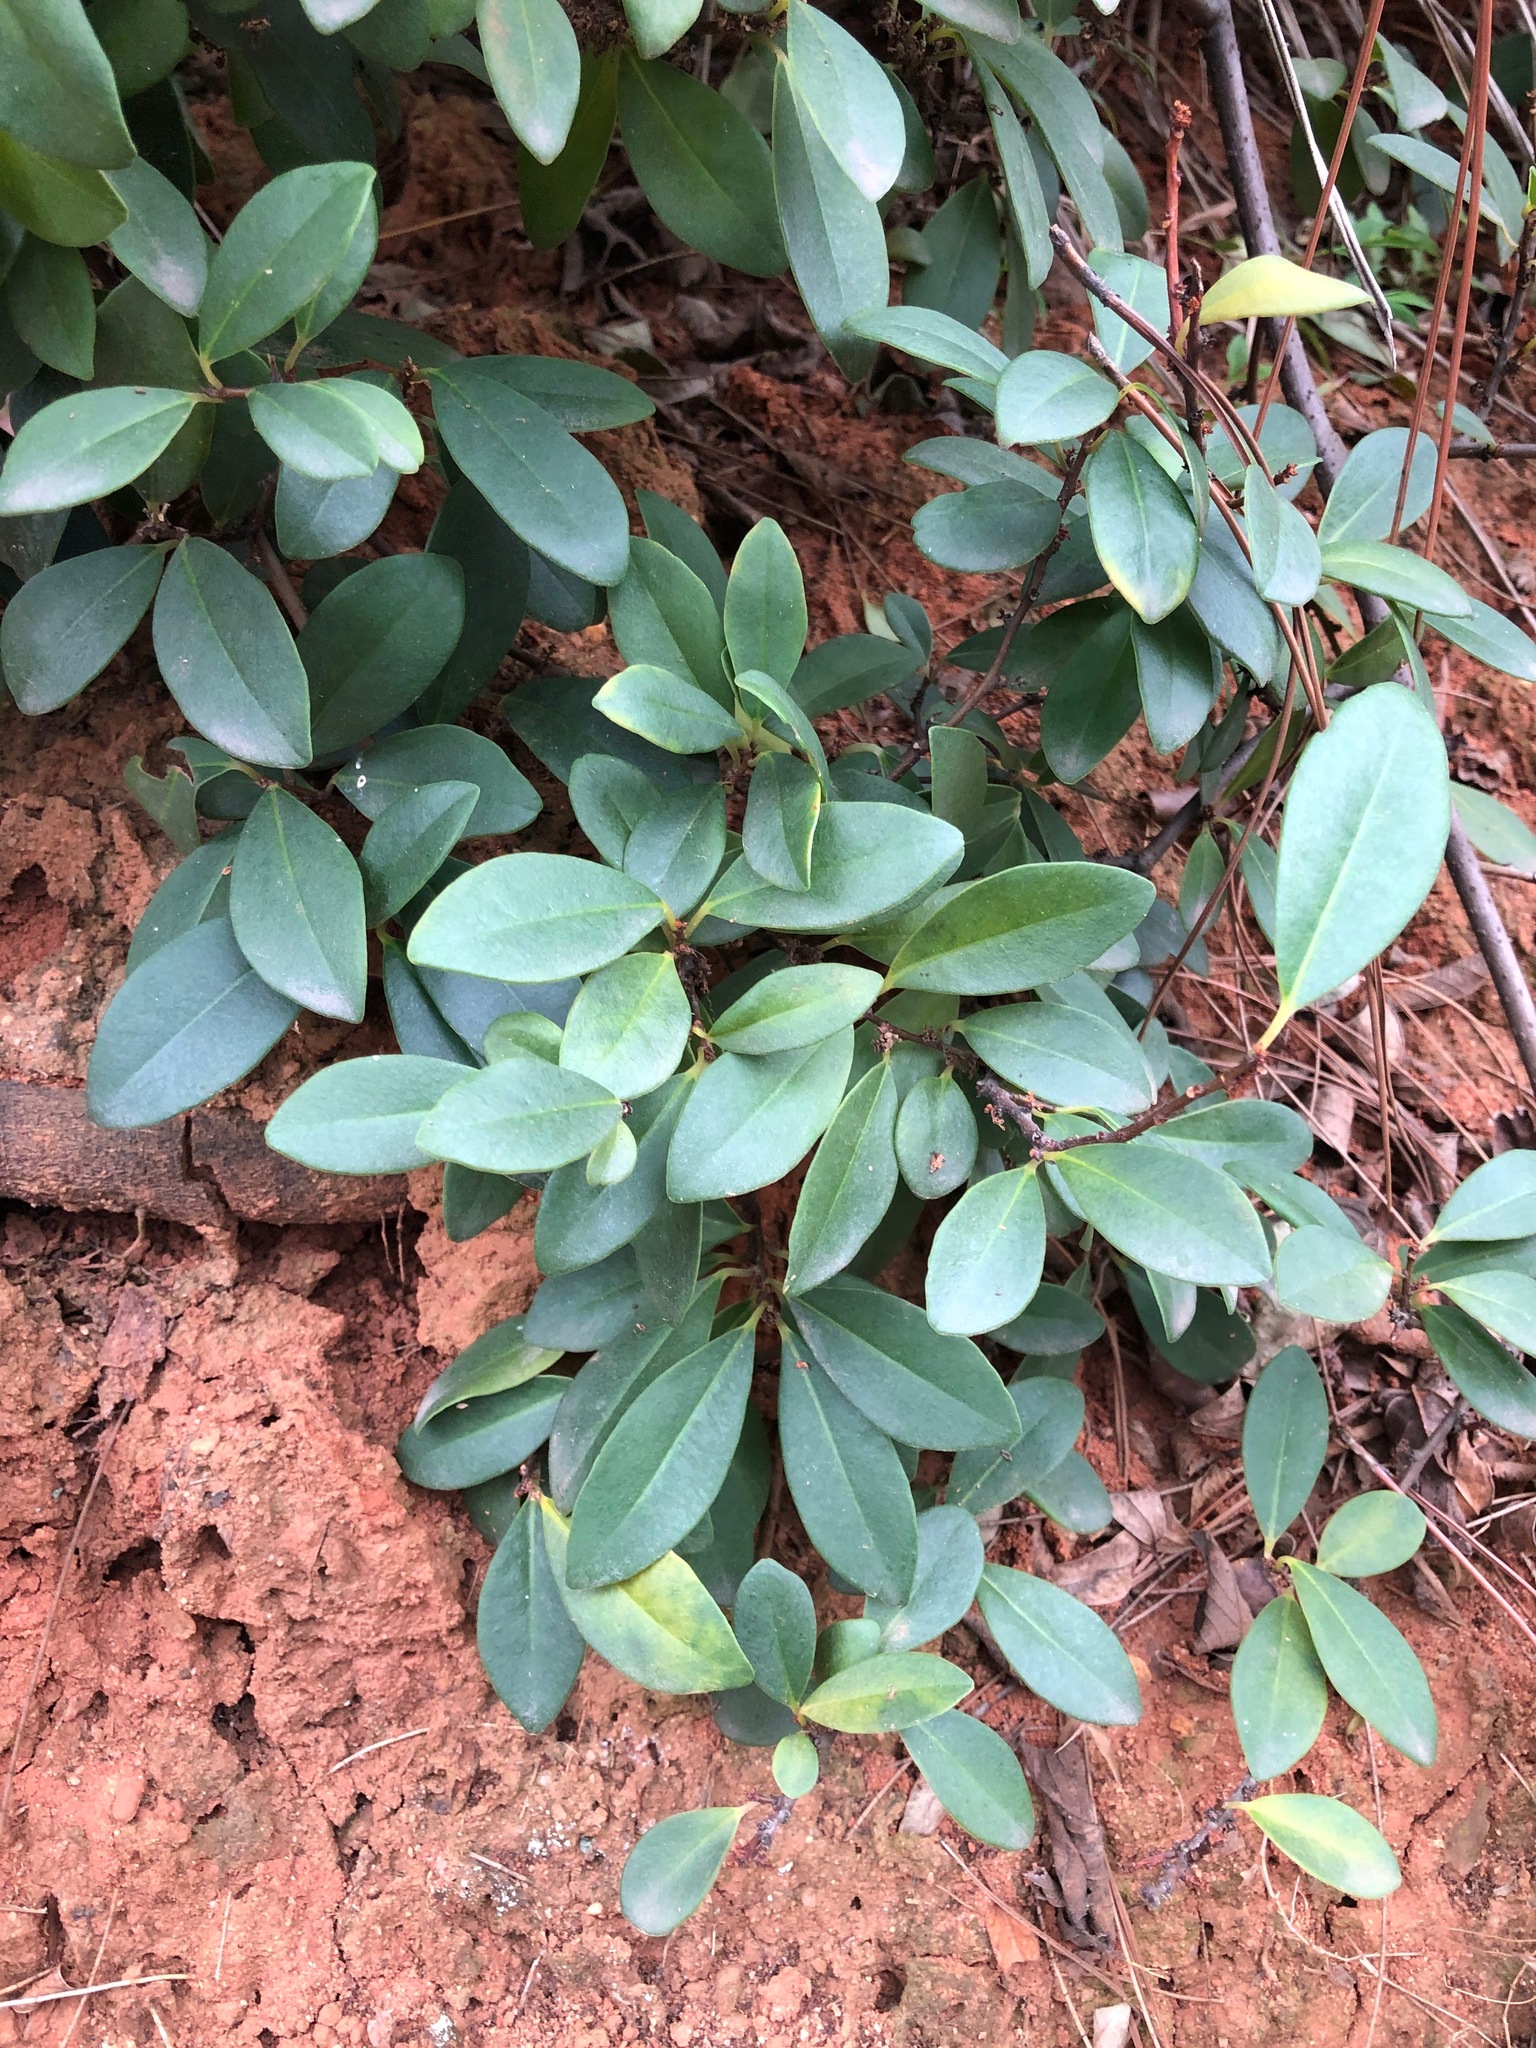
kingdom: Plantae
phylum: Tracheophyta
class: Magnoliopsida
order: Ericales
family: Primulaceae
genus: Embelia
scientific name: Embelia laeta
